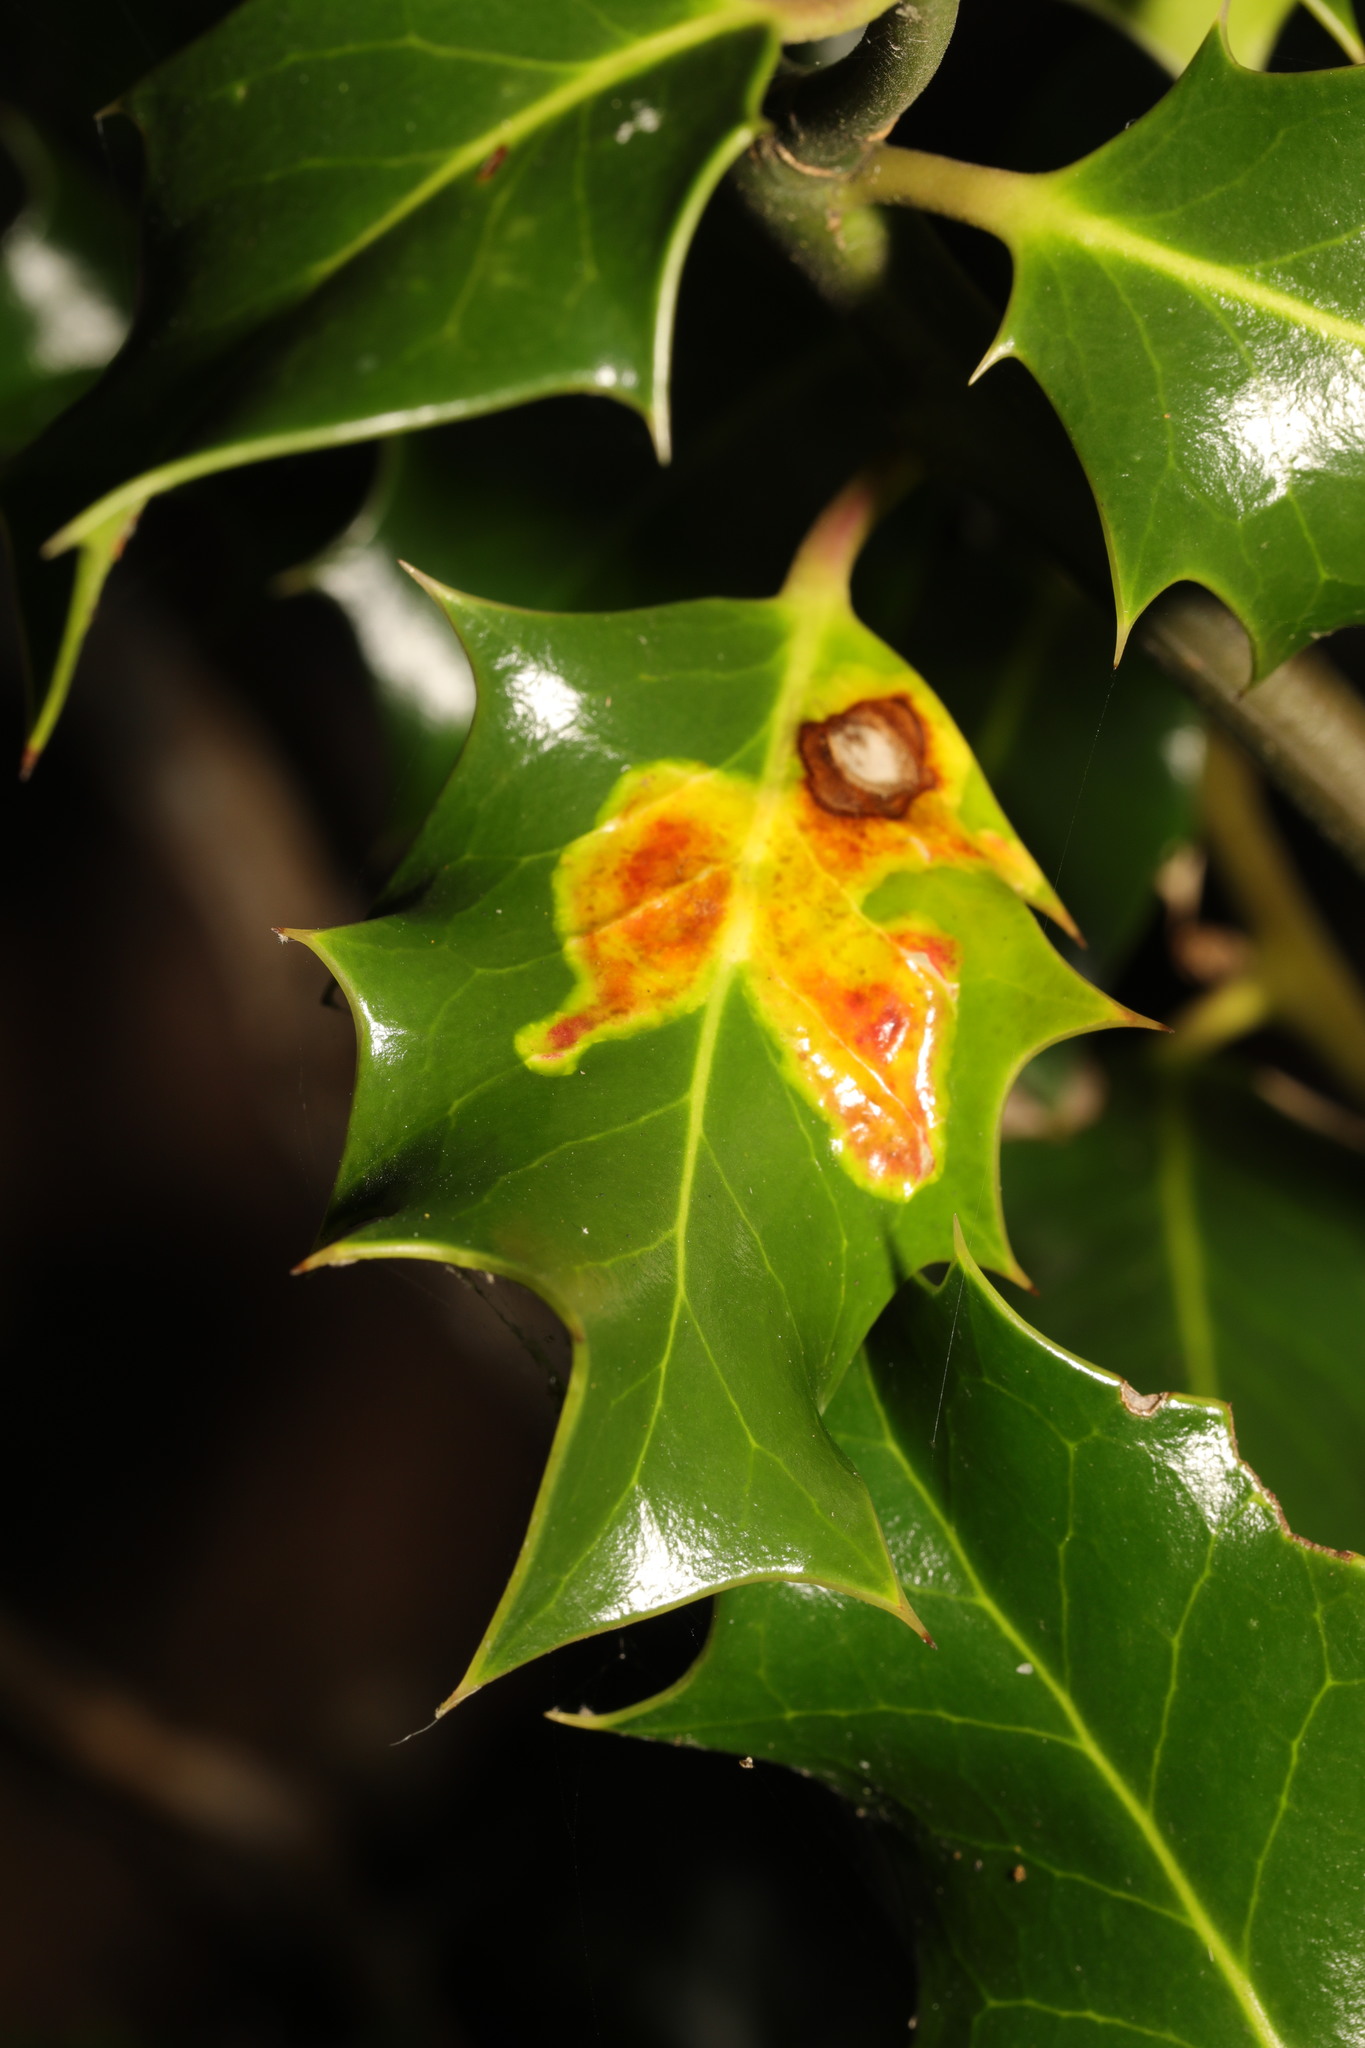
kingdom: Animalia
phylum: Arthropoda
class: Insecta
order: Diptera
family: Agromyzidae
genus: Phytomyza
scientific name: Phytomyza ilicis
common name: Holly leafminer
